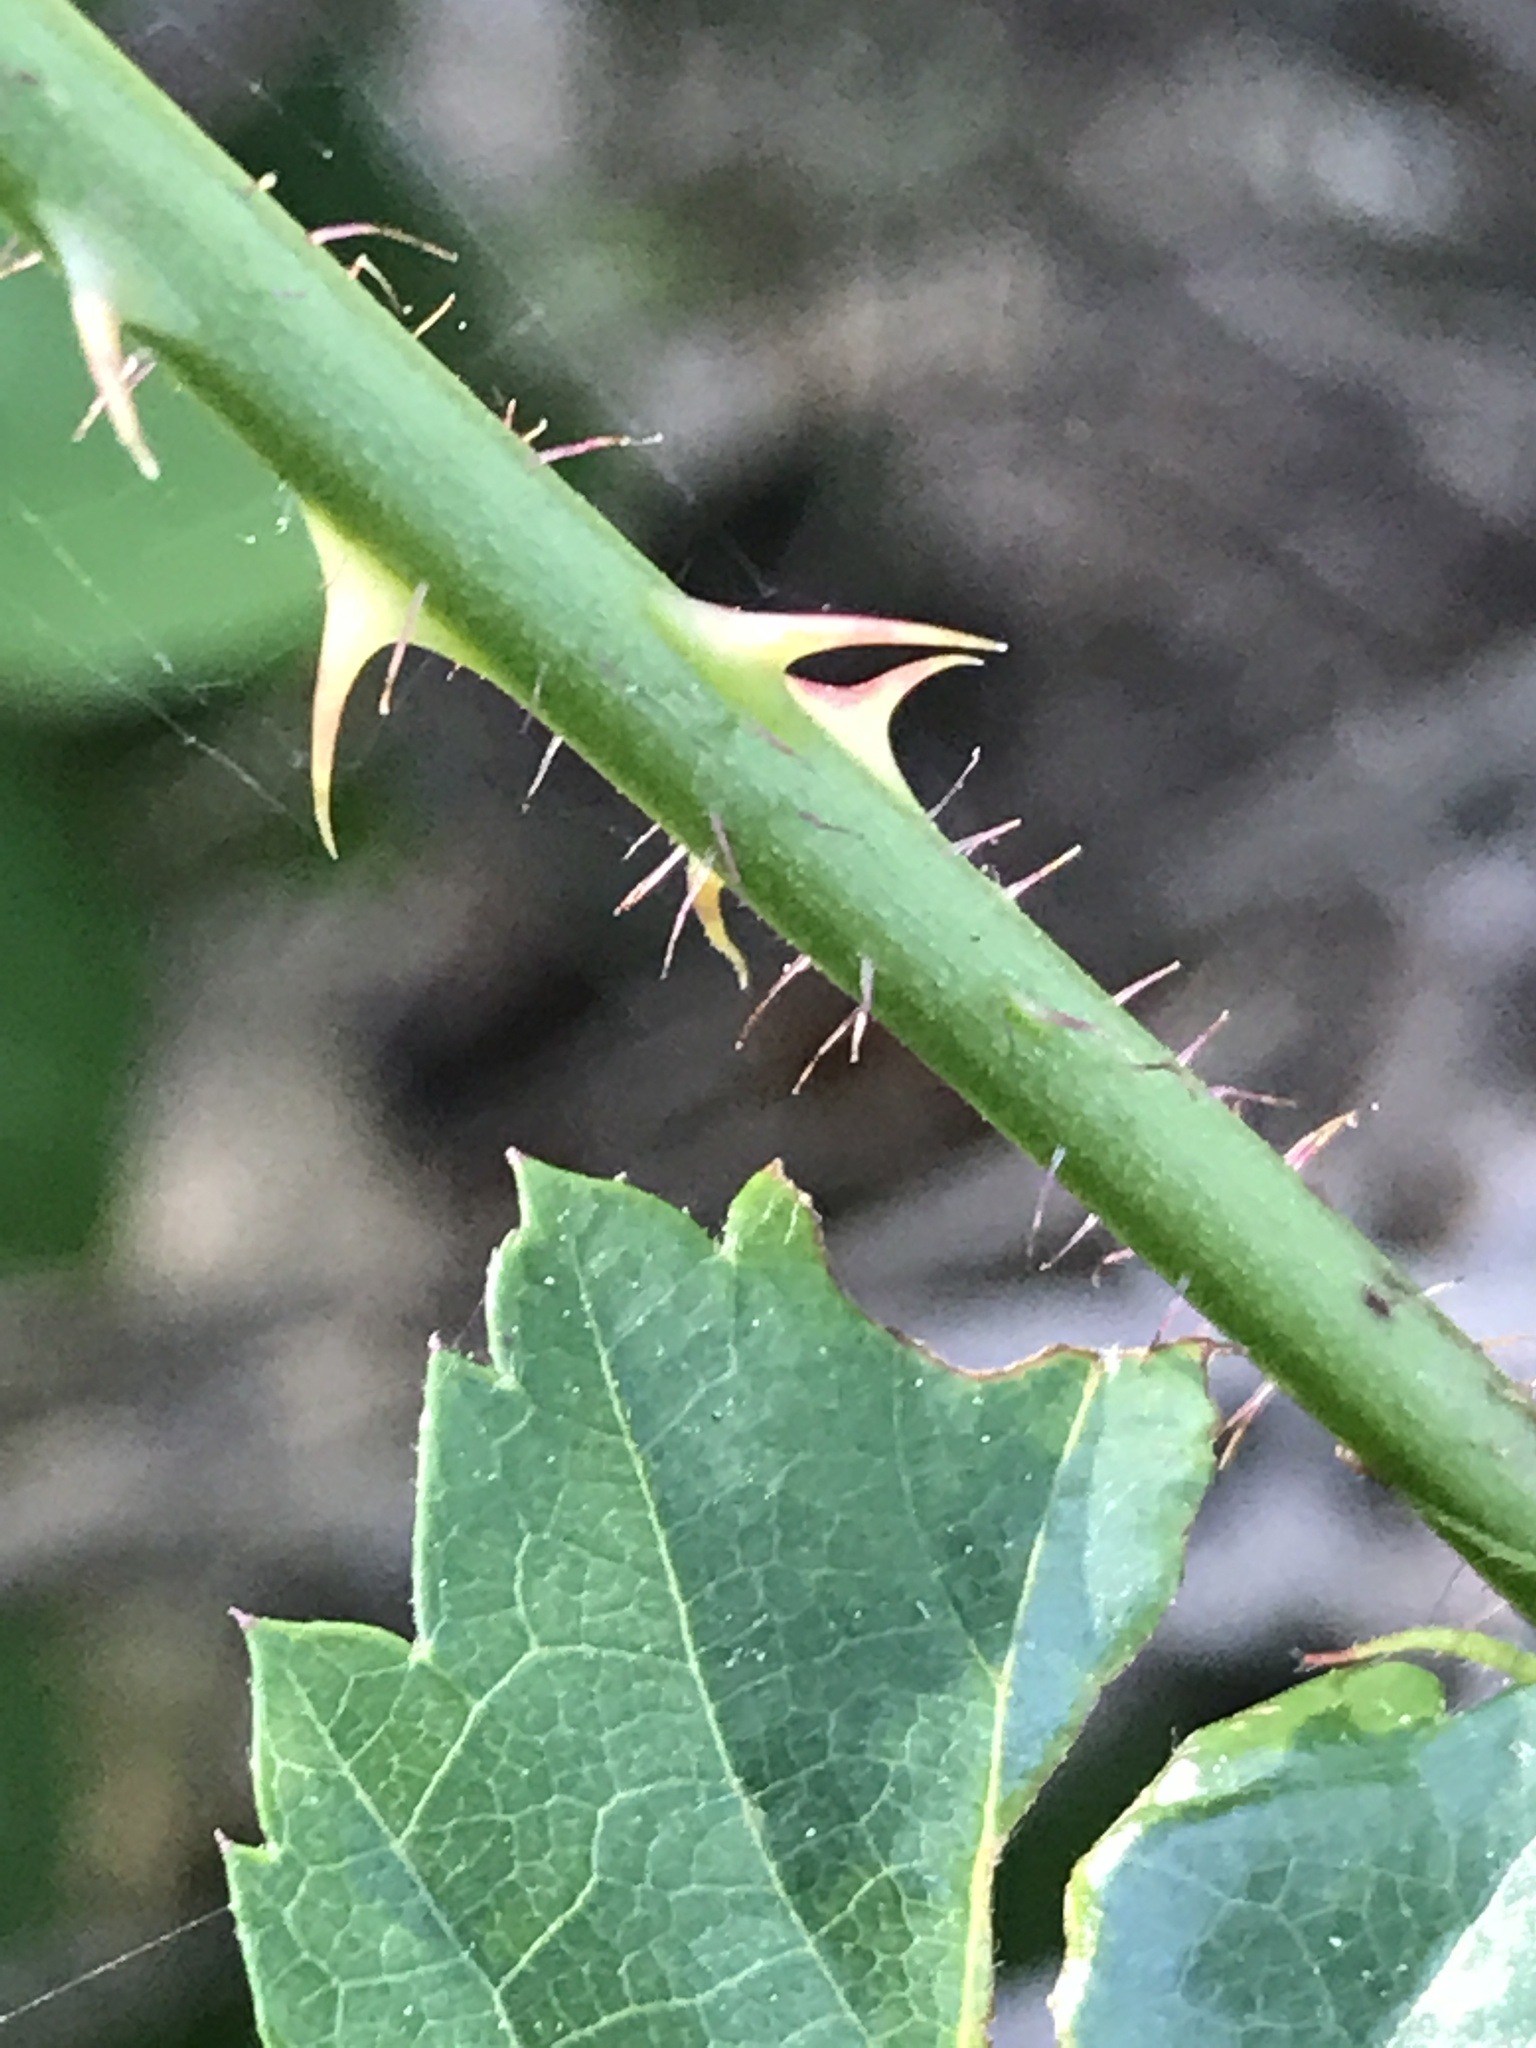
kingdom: Plantae
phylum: Tracheophyta
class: Magnoliopsida
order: Rosales
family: Rosaceae
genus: Rubus
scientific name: Rubus trivialis
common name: Southern dewberry
